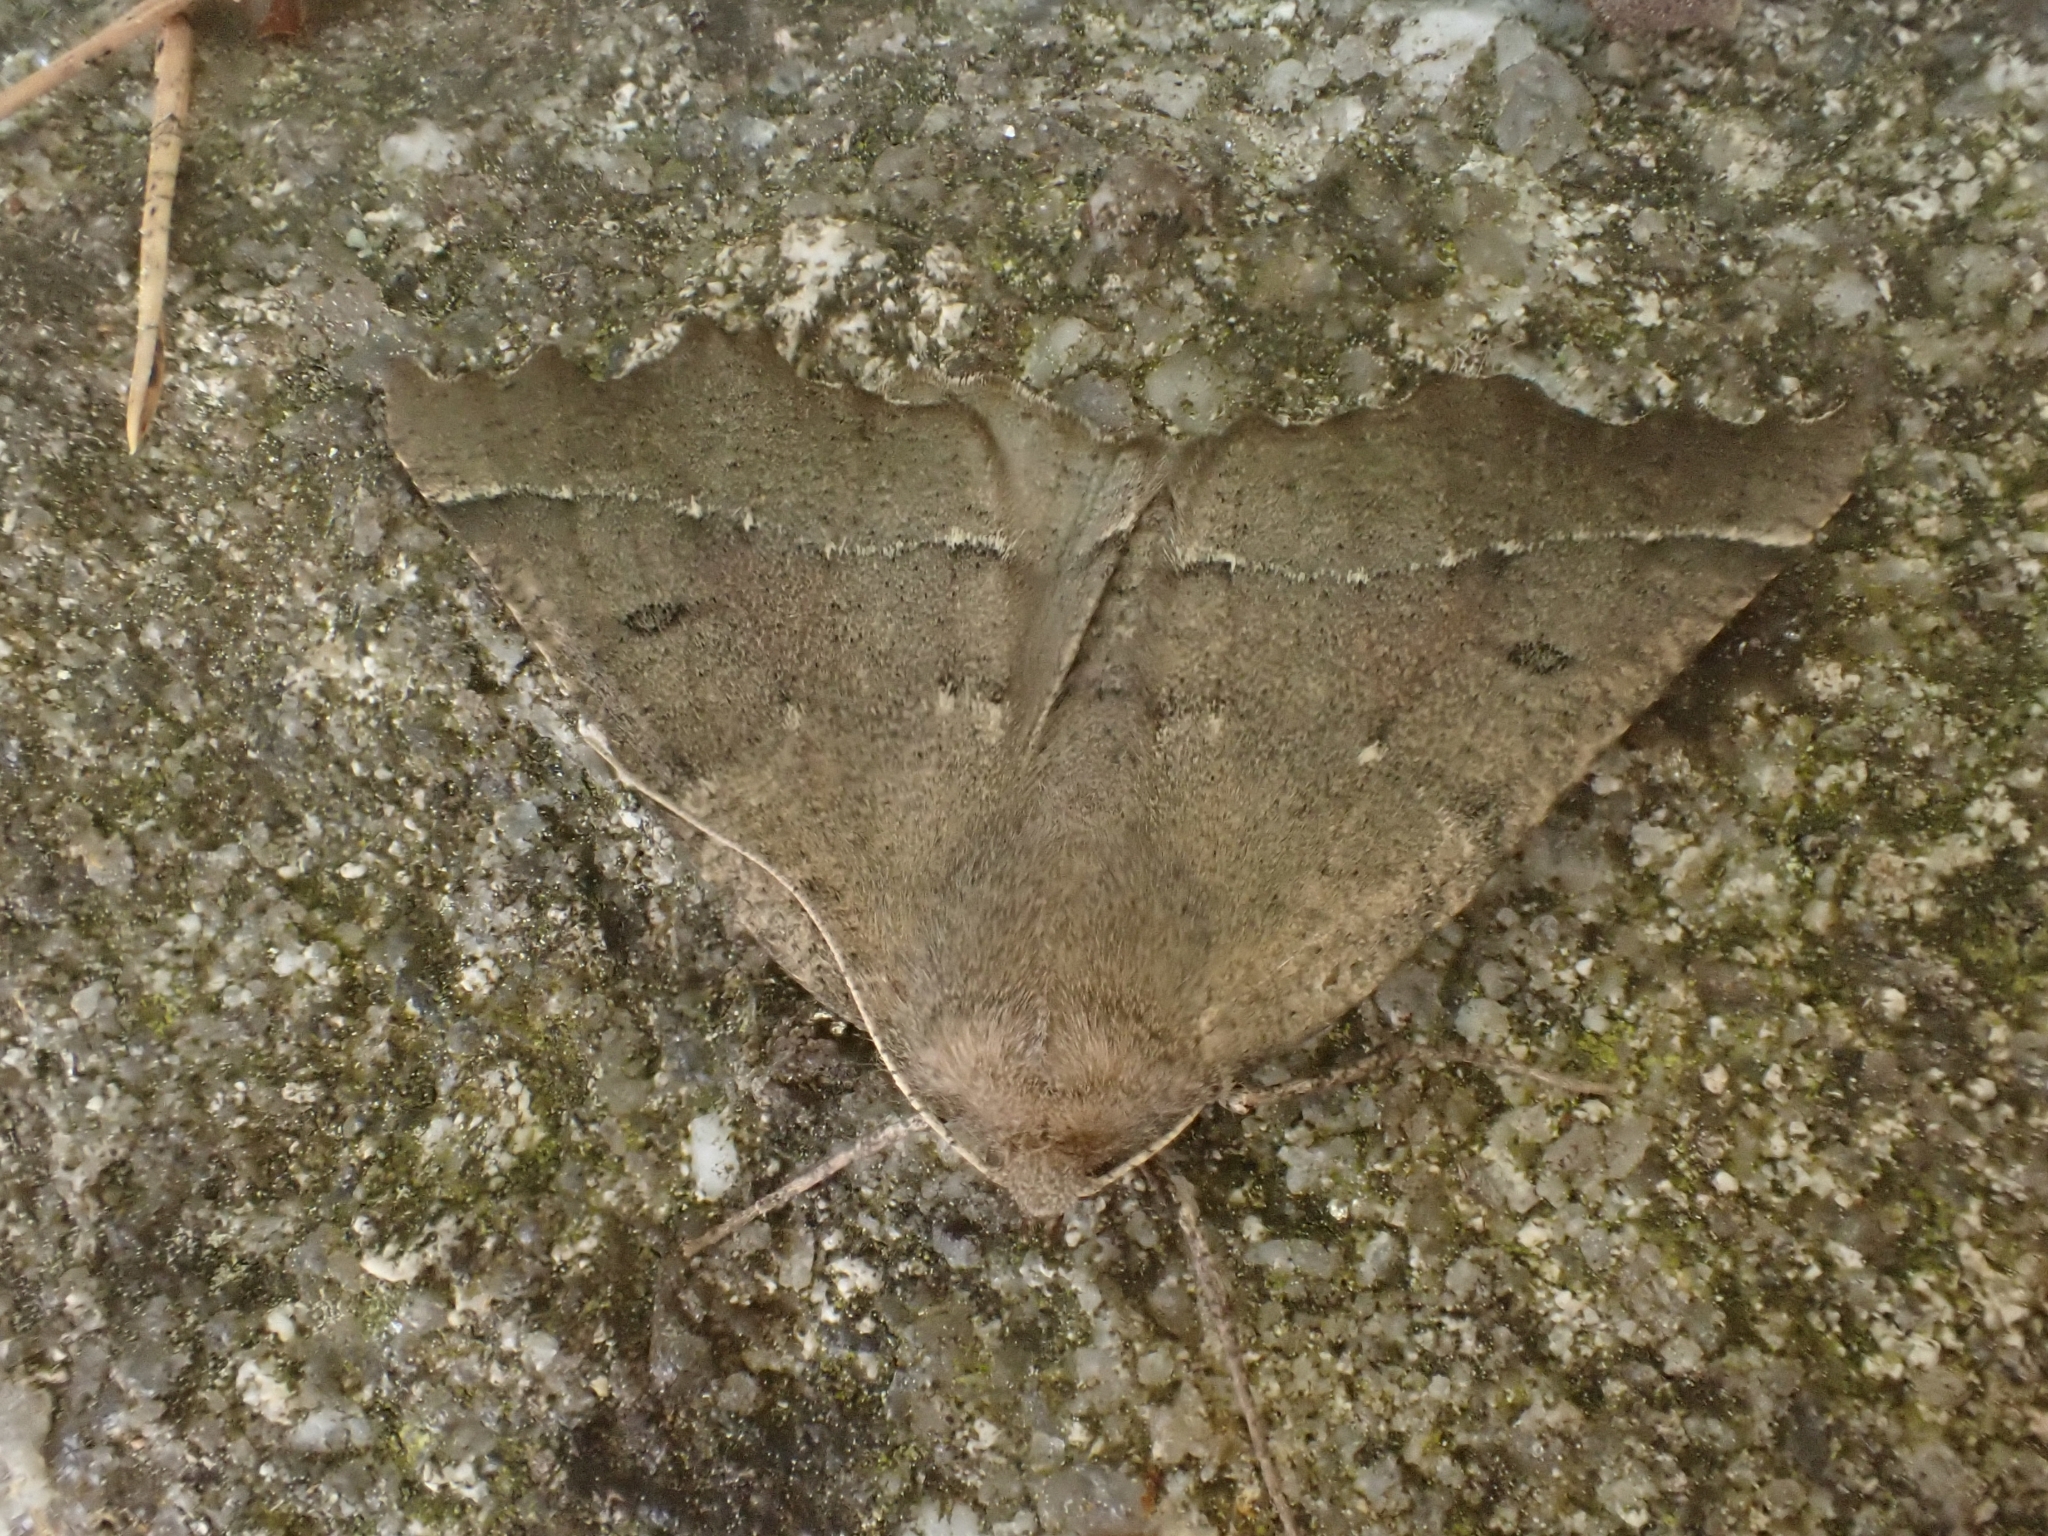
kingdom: Animalia
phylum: Arthropoda
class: Insecta
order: Lepidoptera
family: Geometridae
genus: Odontopera
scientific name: Odontopera bidentata
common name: Scalloped hazel
